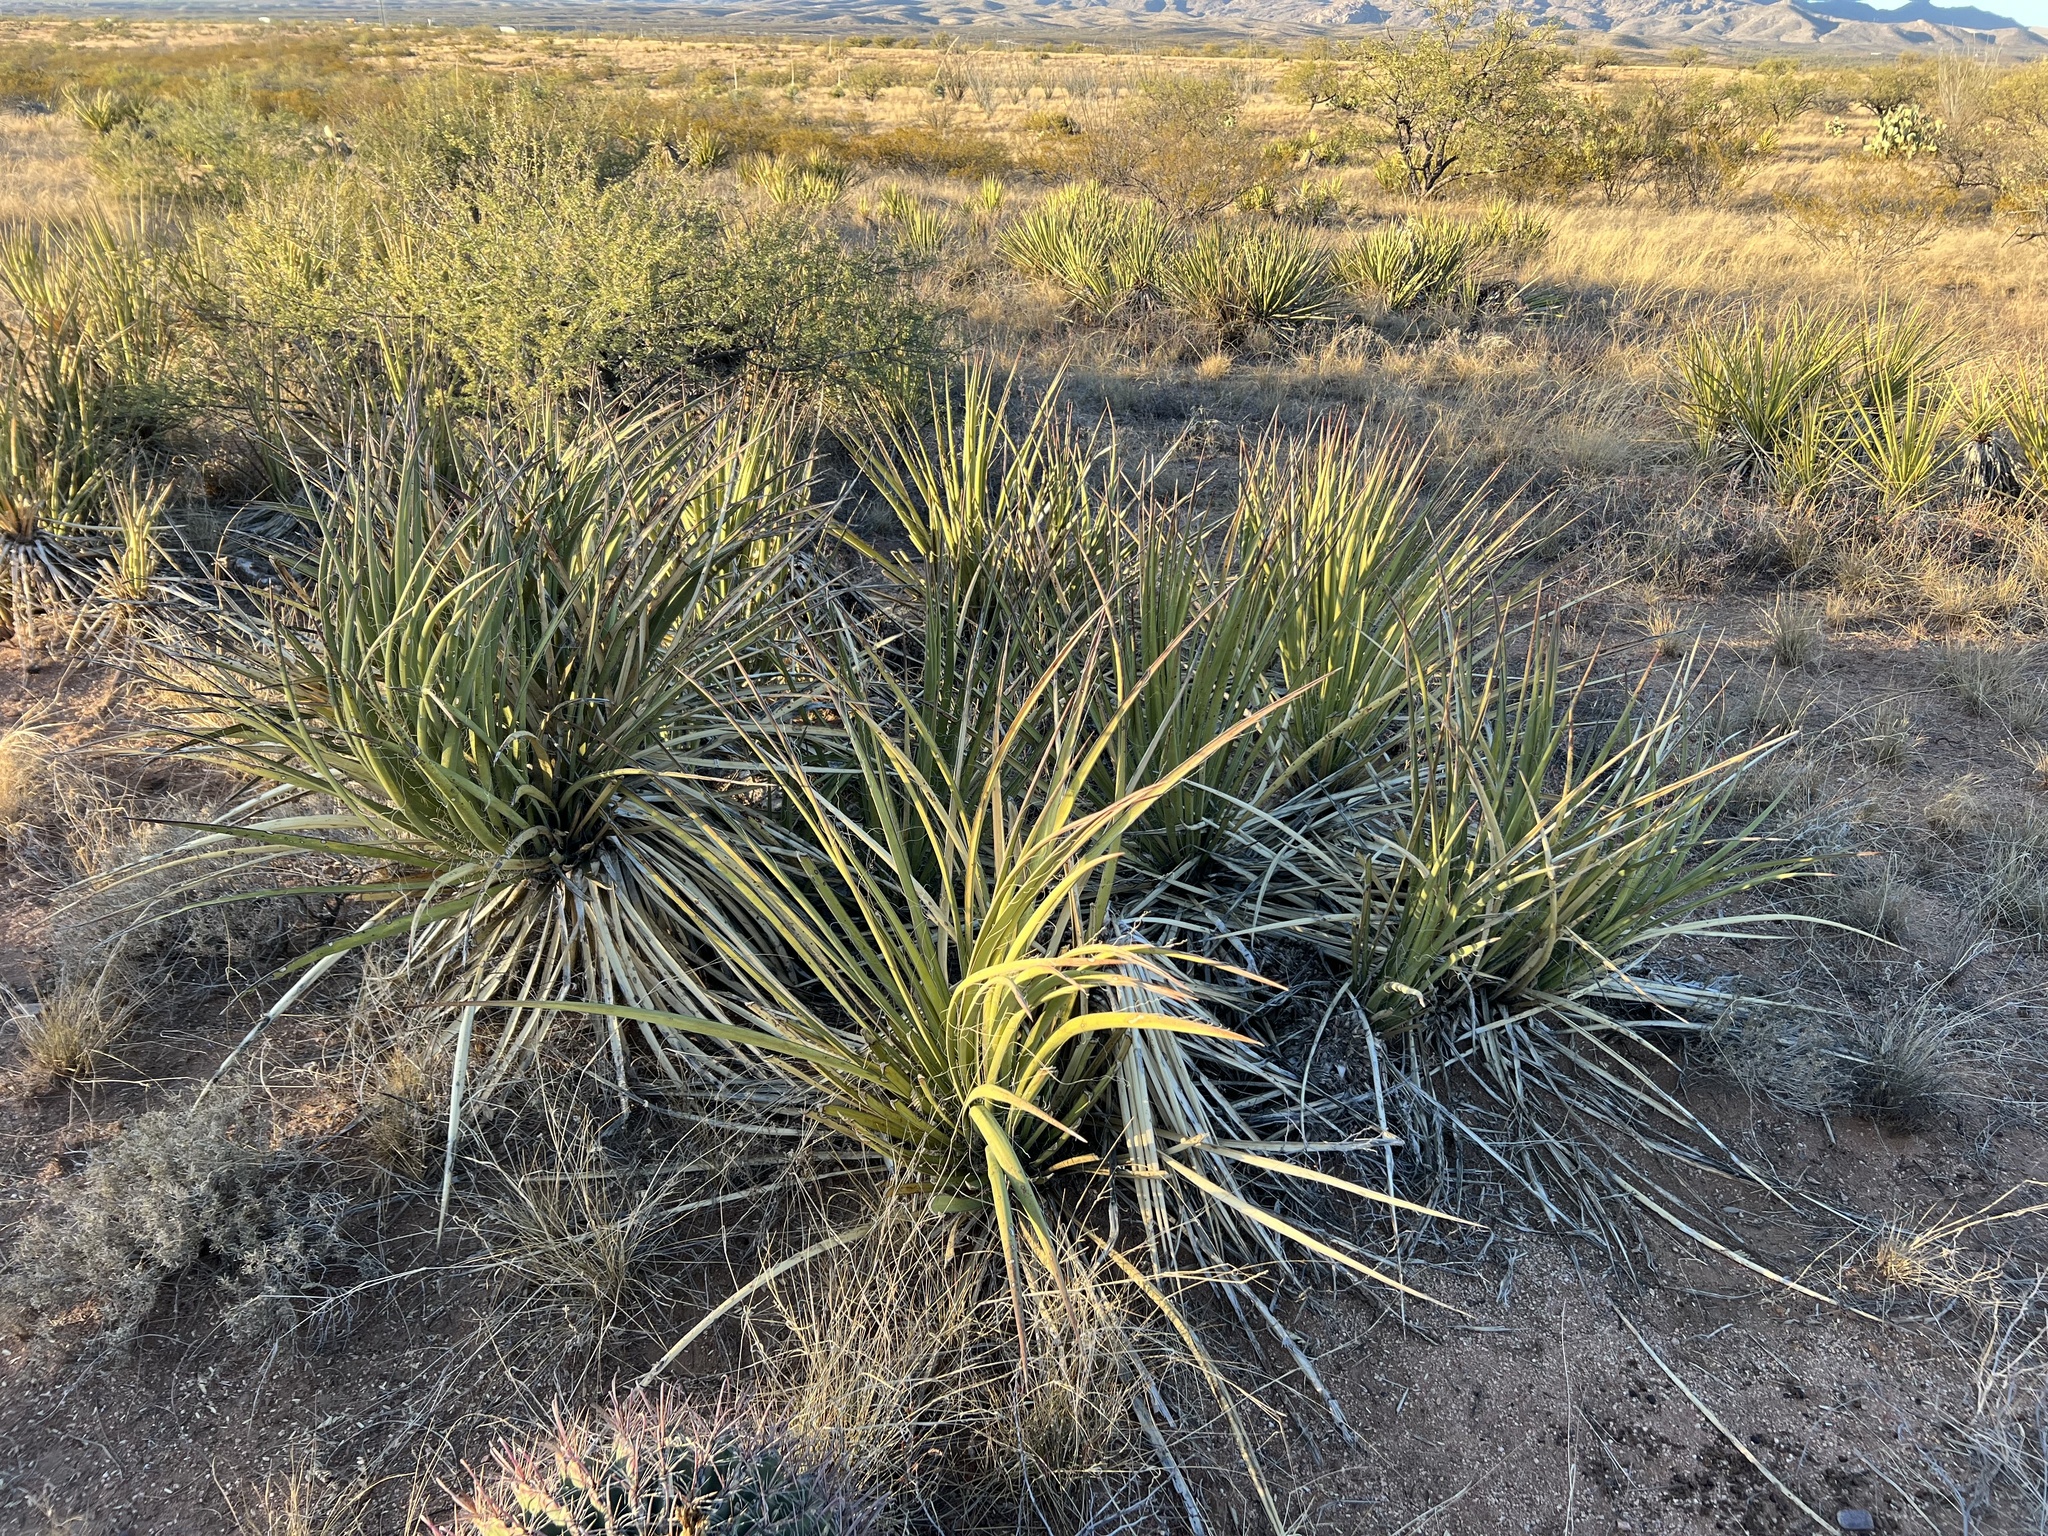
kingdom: Plantae
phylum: Tracheophyta
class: Liliopsida
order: Asparagales
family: Asparagaceae
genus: Yucca
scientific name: Yucca baccata
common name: Banana yucca
